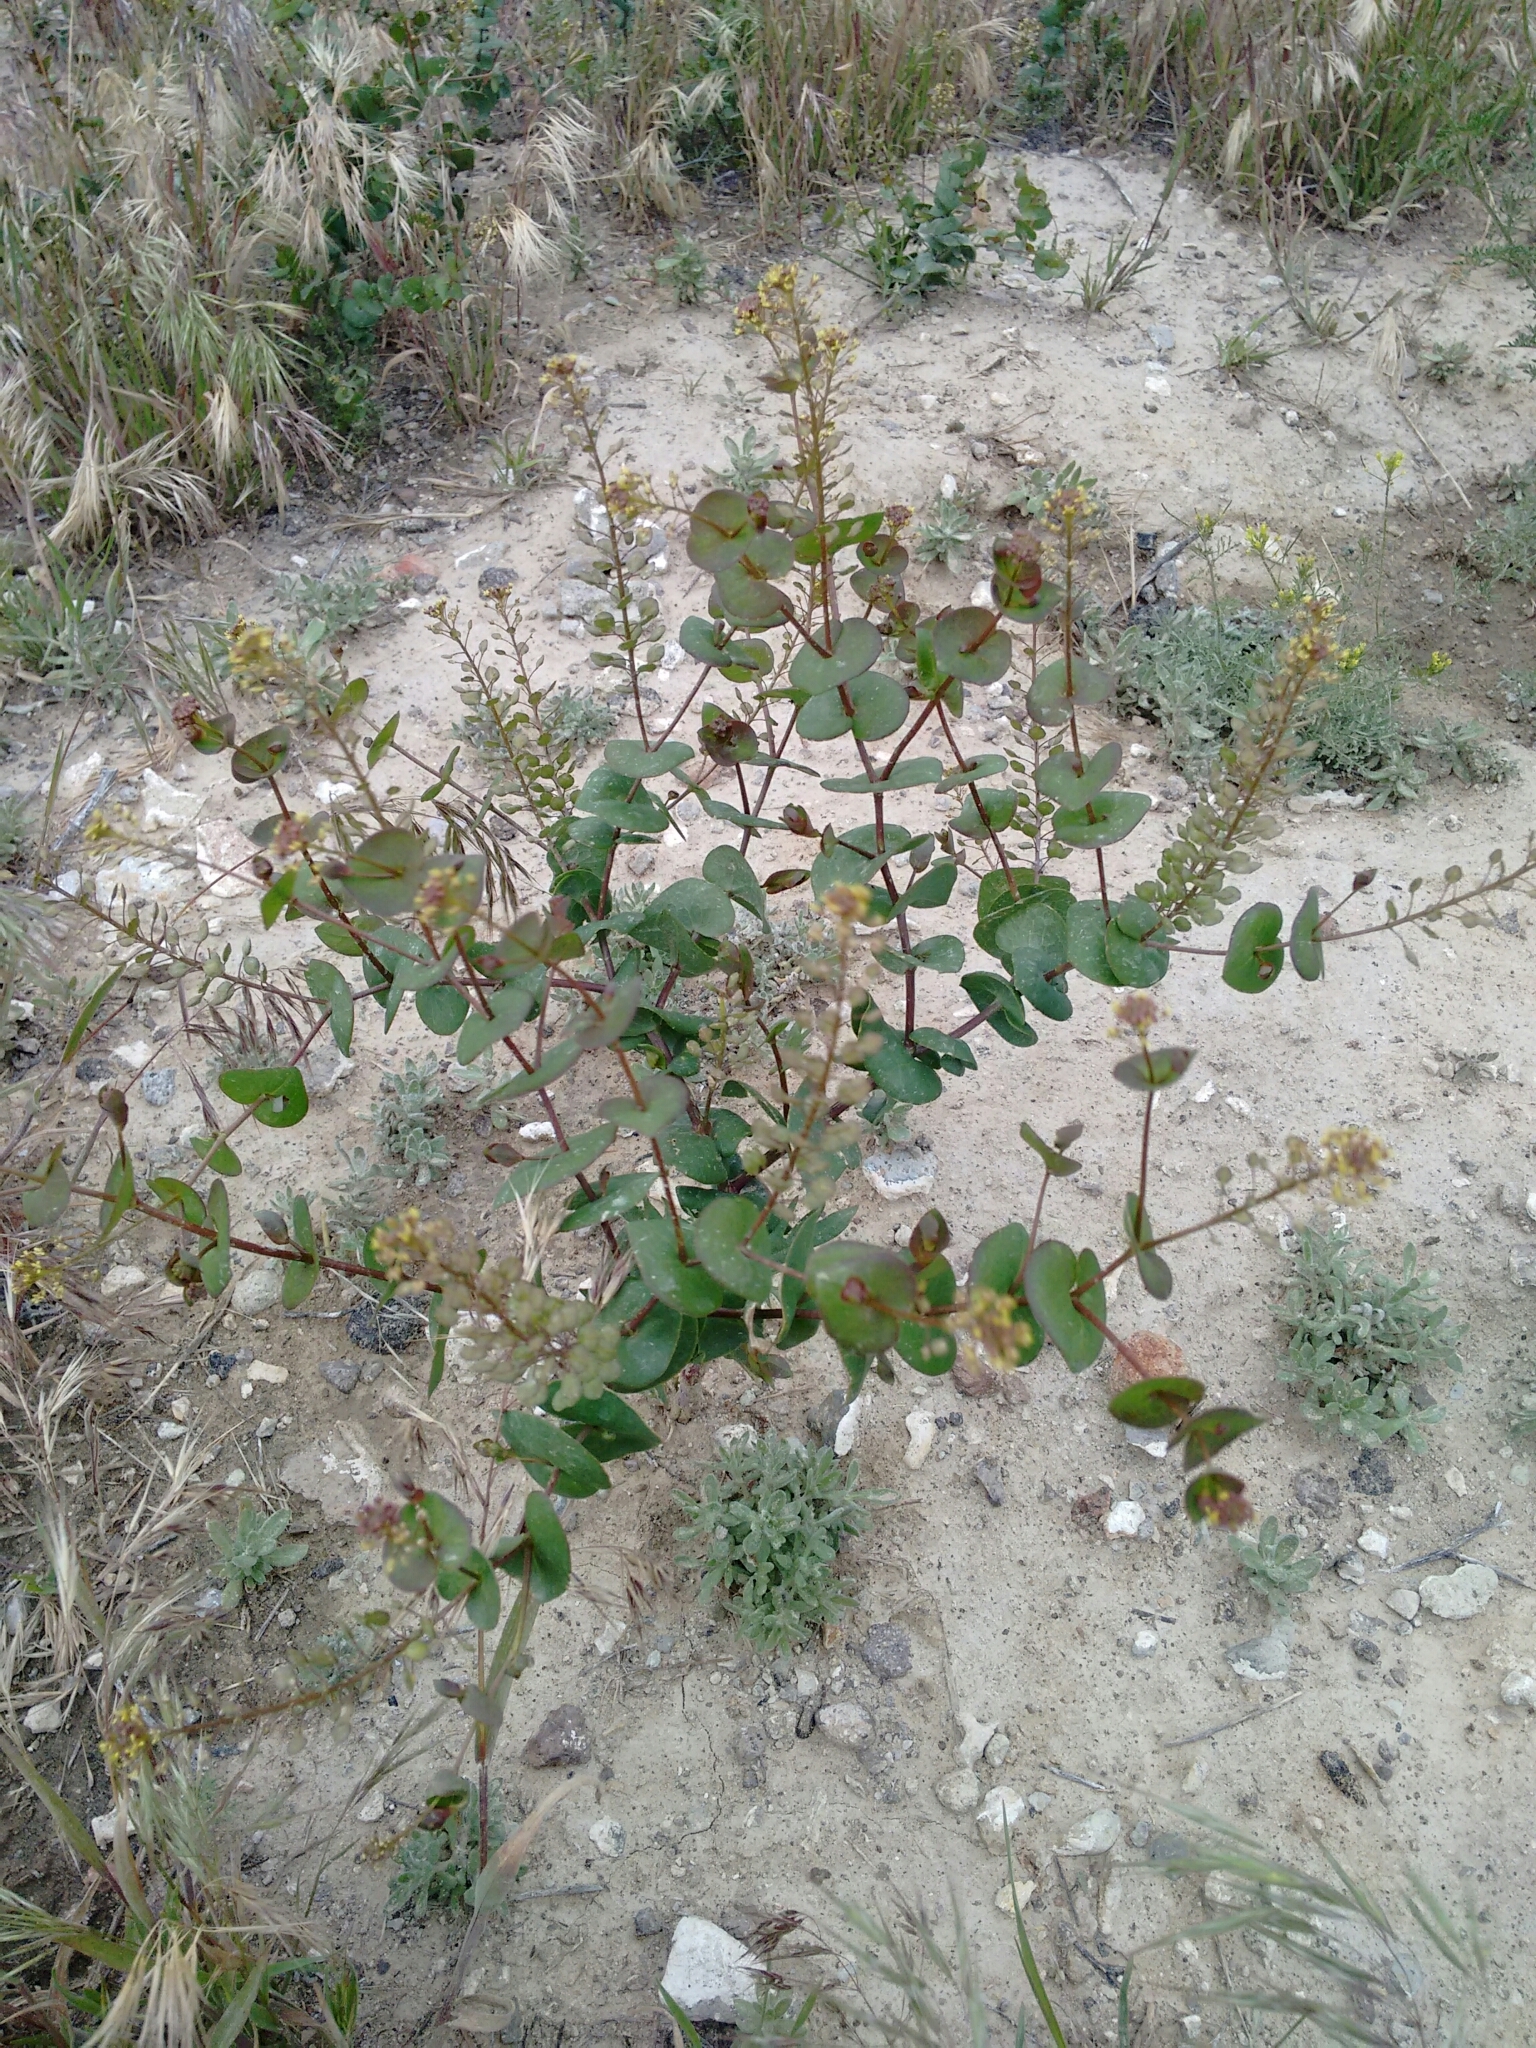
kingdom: Plantae
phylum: Tracheophyta
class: Magnoliopsida
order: Brassicales
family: Brassicaceae
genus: Lepidium
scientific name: Lepidium perfoliatum
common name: Perfoliate pepperwort
